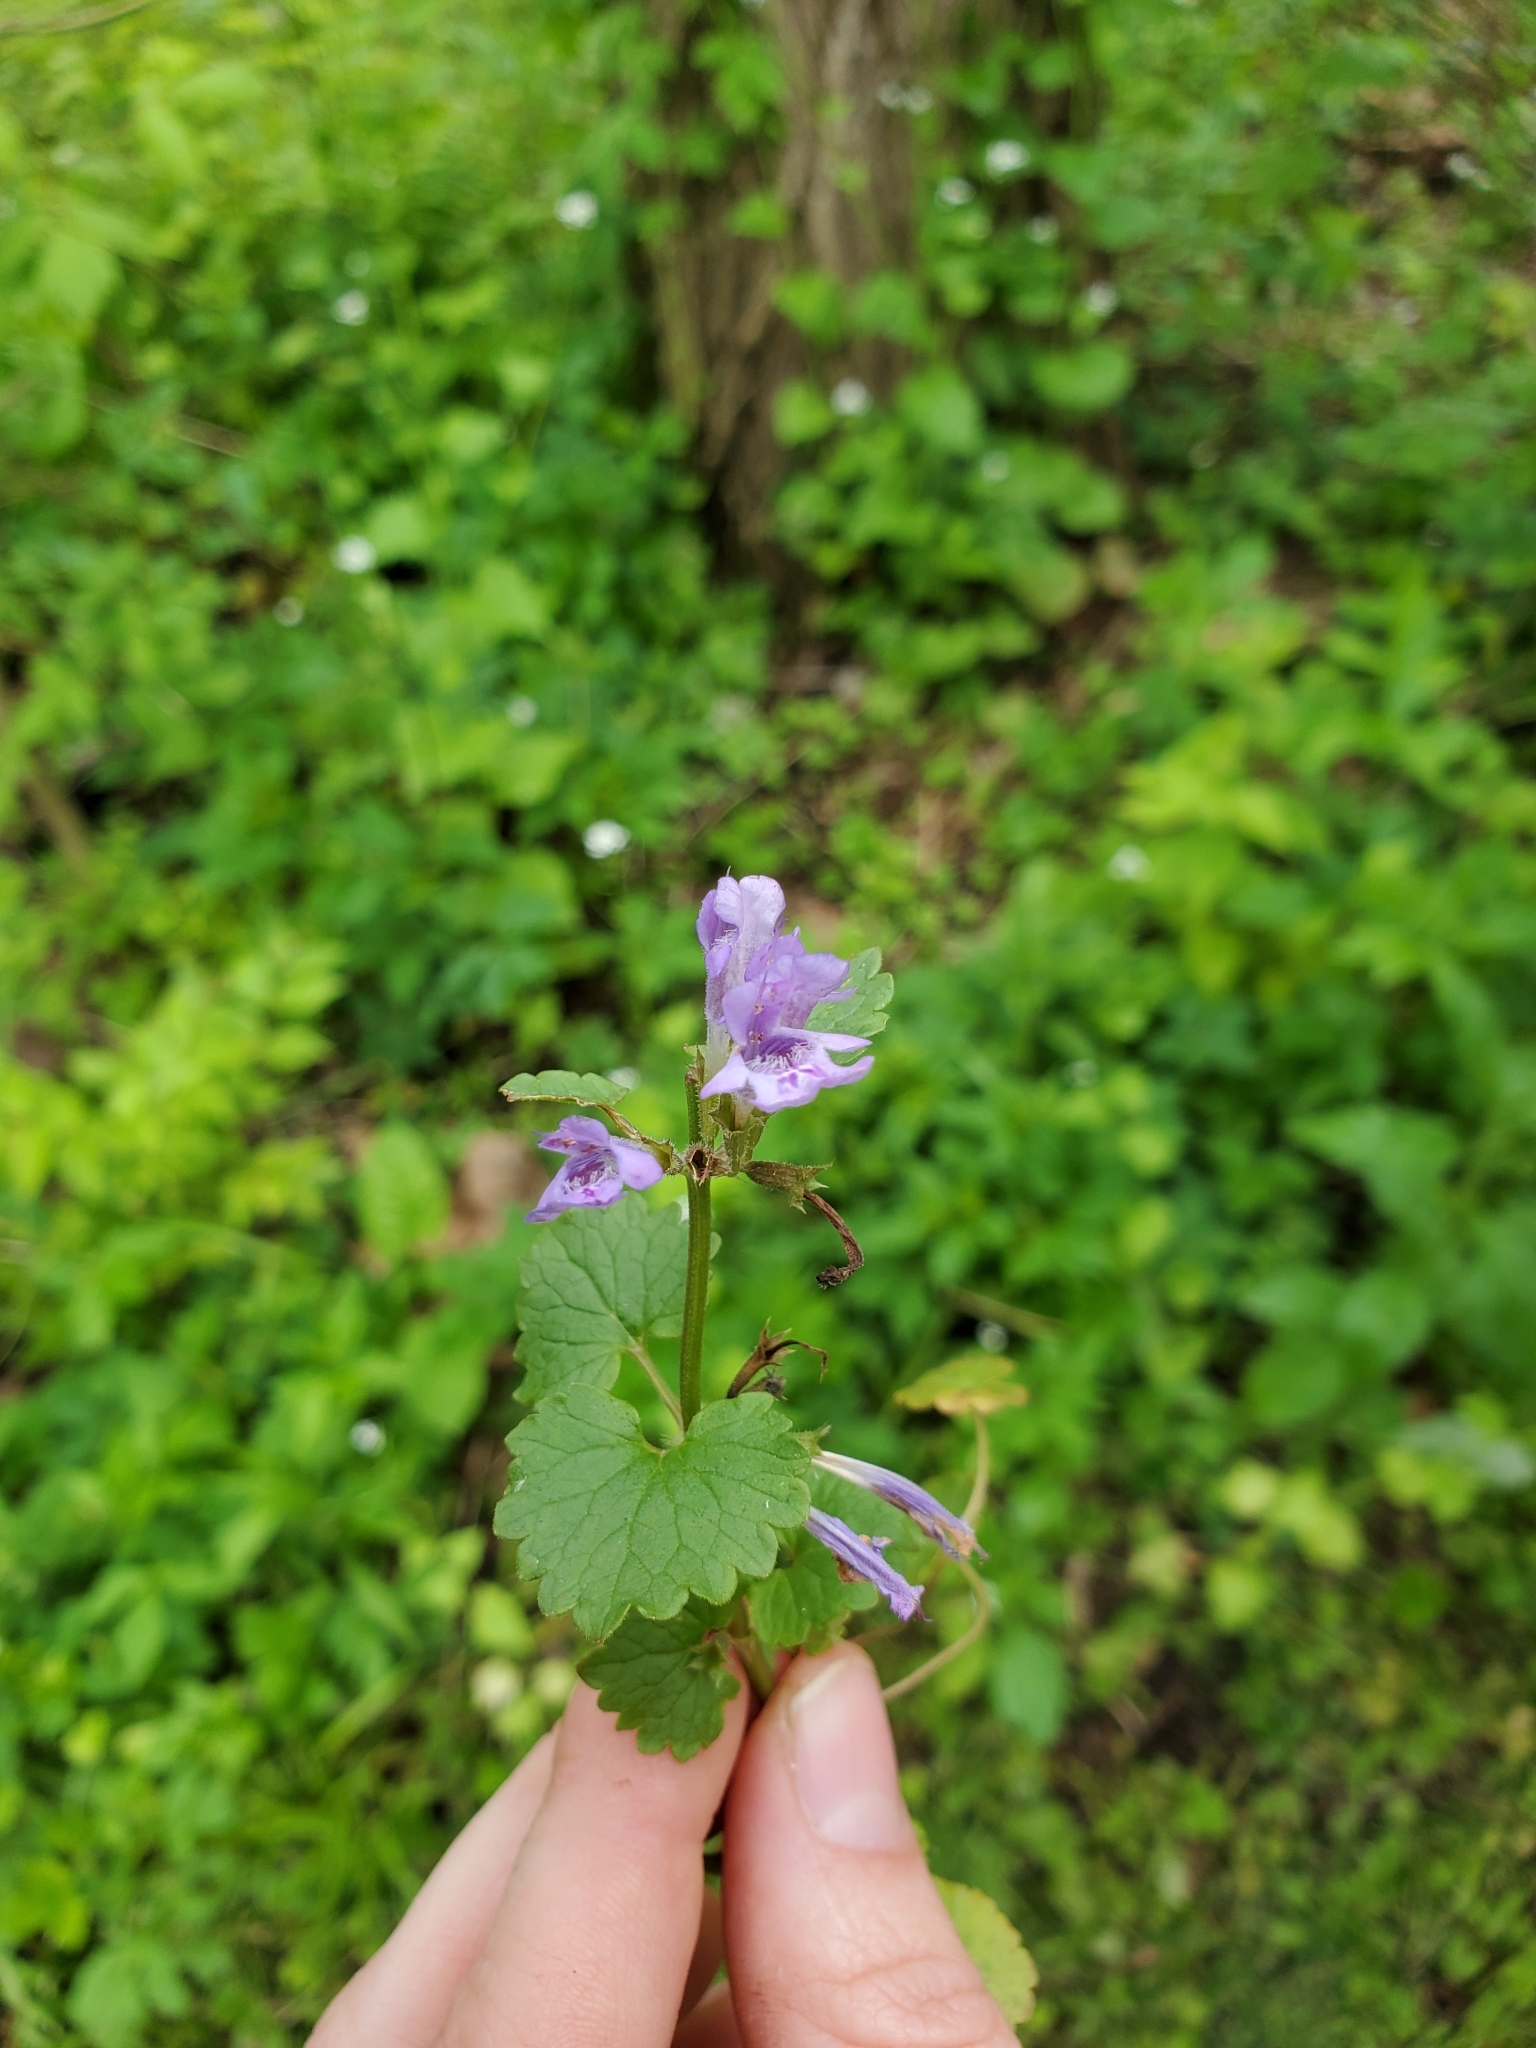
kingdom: Plantae
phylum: Tracheophyta
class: Magnoliopsida
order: Lamiales
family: Lamiaceae
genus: Glechoma
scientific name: Glechoma hederacea
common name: Ground ivy
